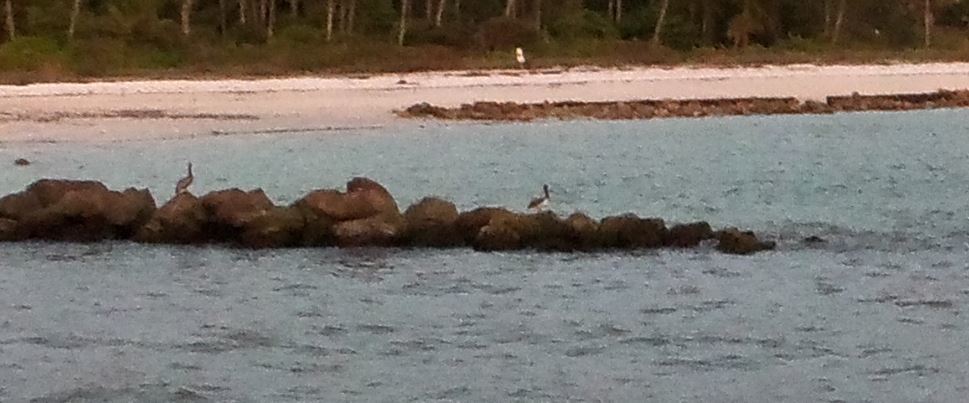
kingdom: Animalia
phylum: Chordata
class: Aves
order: Pelecaniformes
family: Pelecanidae
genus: Pelecanus
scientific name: Pelecanus occidentalis
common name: Brown pelican
